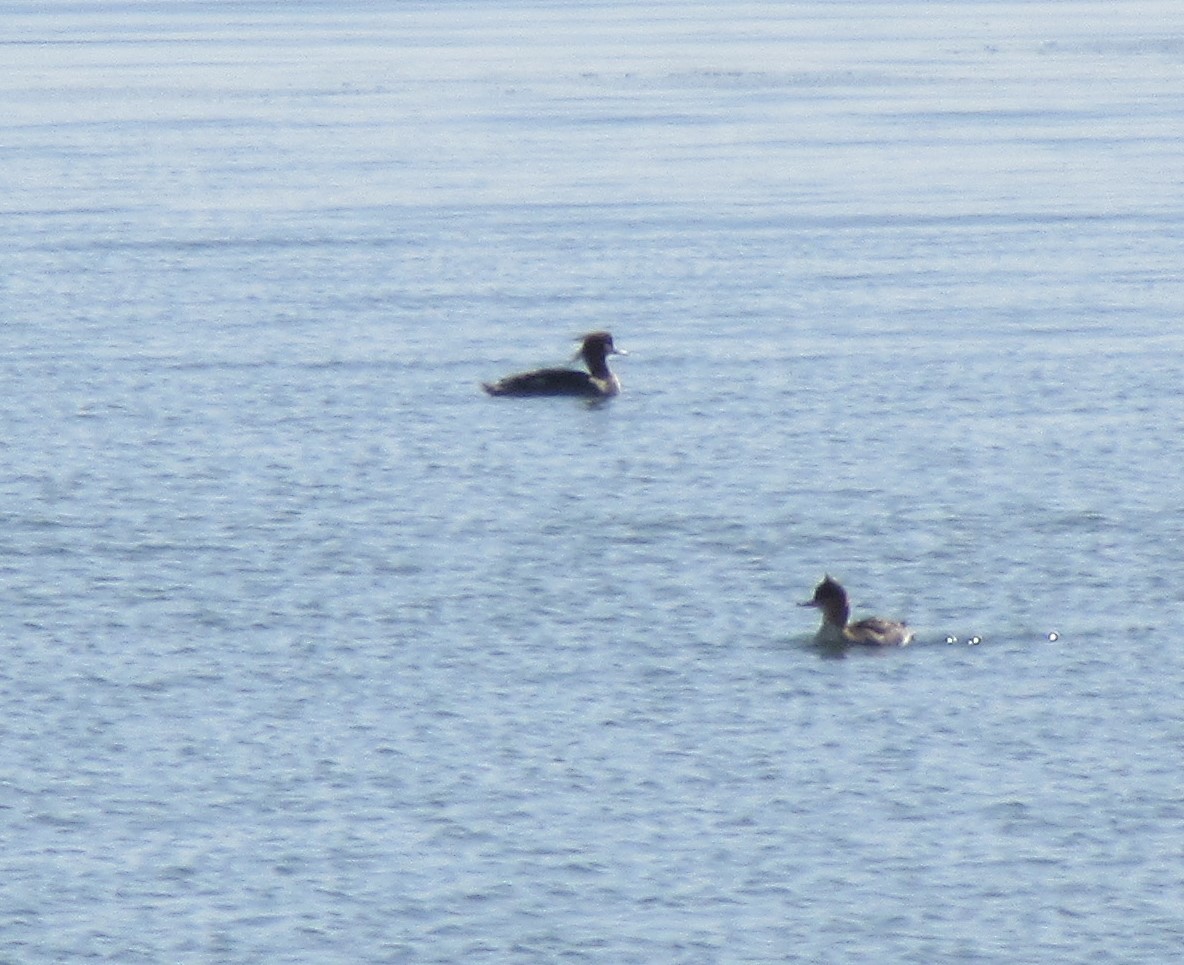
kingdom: Animalia
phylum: Chordata
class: Aves
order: Anseriformes
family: Anatidae
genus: Mergus
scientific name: Mergus serrator
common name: Red-breasted merganser
